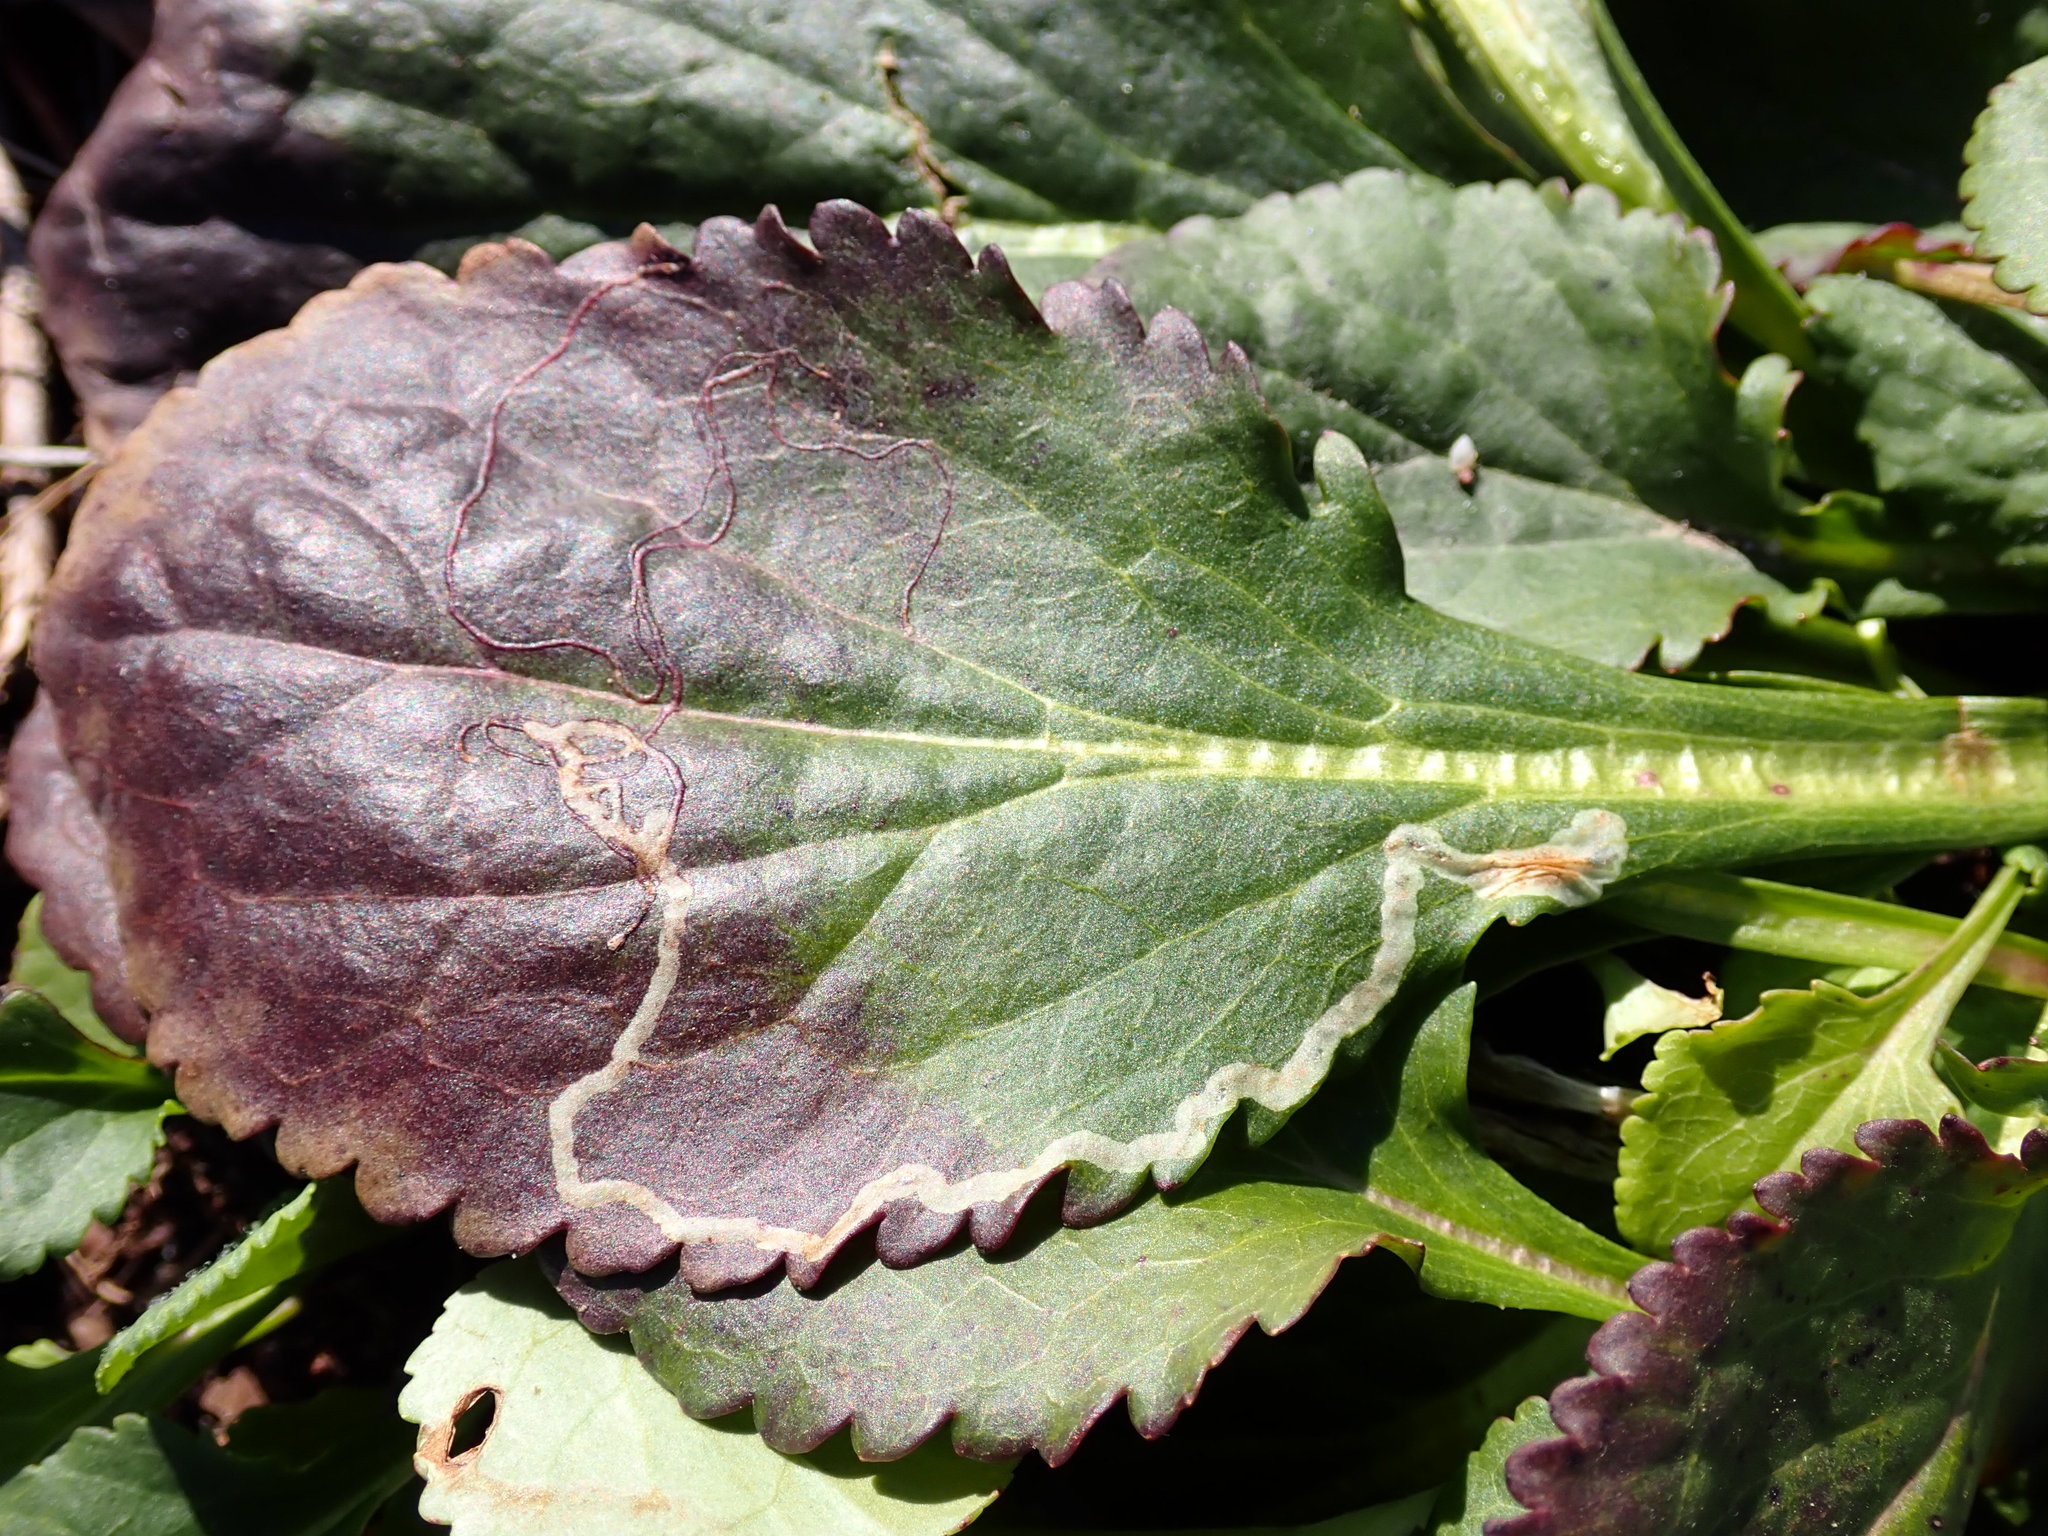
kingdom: Animalia
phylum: Arthropoda
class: Insecta
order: Lepidoptera
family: Gracillariidae
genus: Phyllocnistis
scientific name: Phyllocnistis insignis
